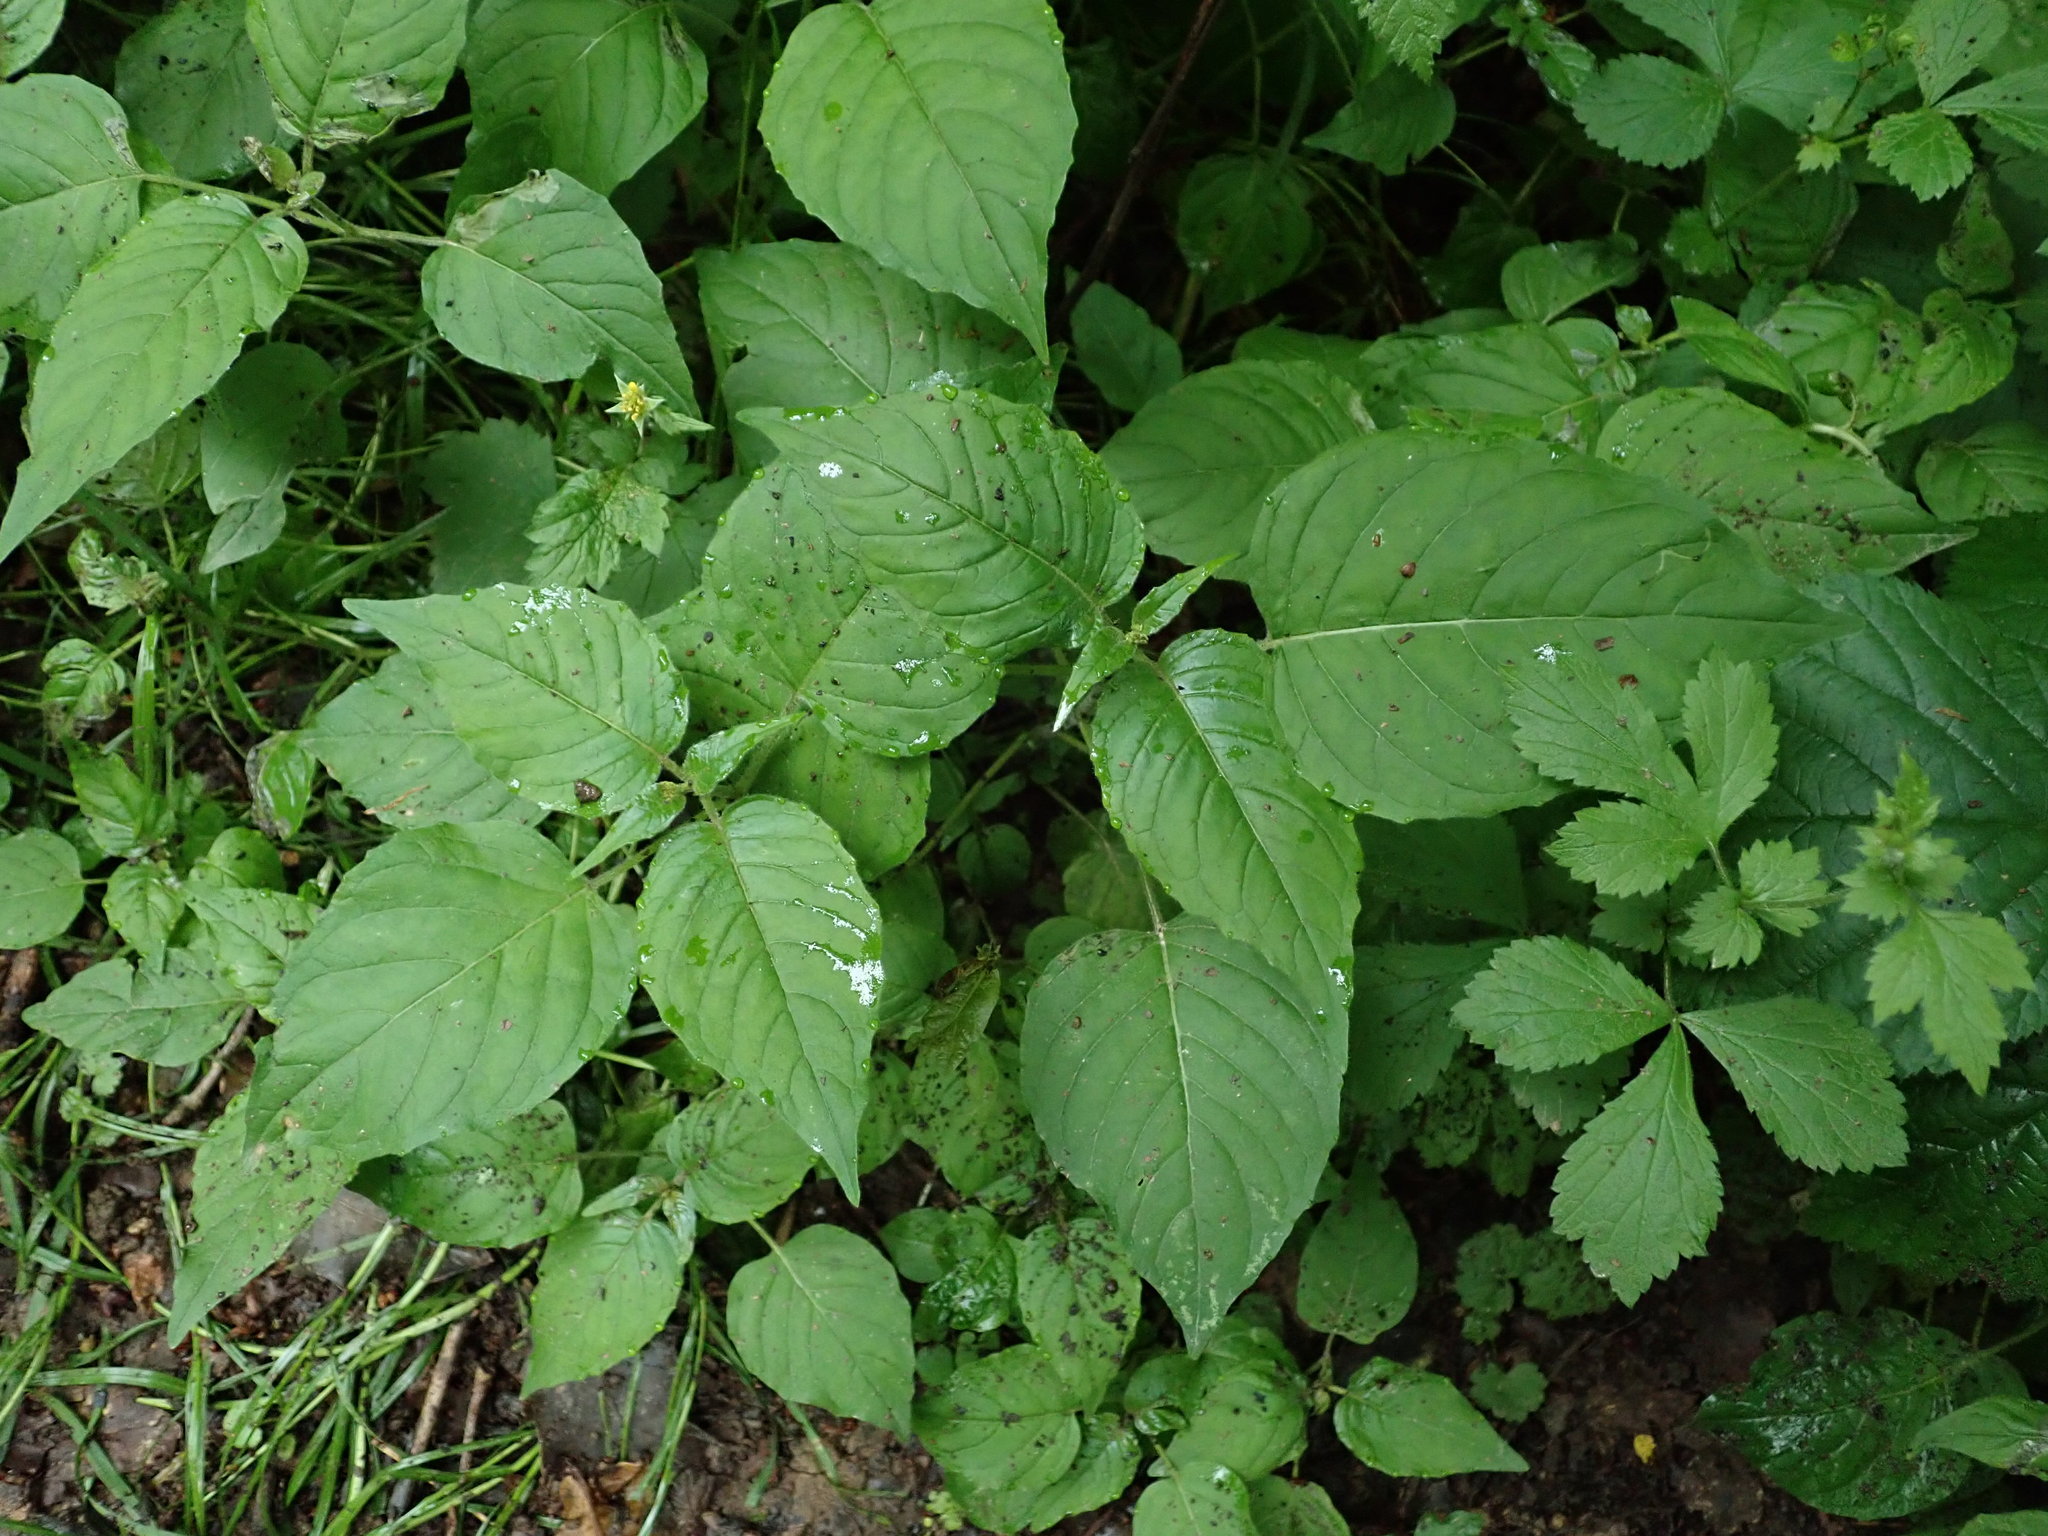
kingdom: Plantae
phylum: Tracheophyta
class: Magnoliopsida
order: Myrtales
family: Onagraceae
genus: Circaea
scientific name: Circaea lutetiana
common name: Enchanter's-nightshade
